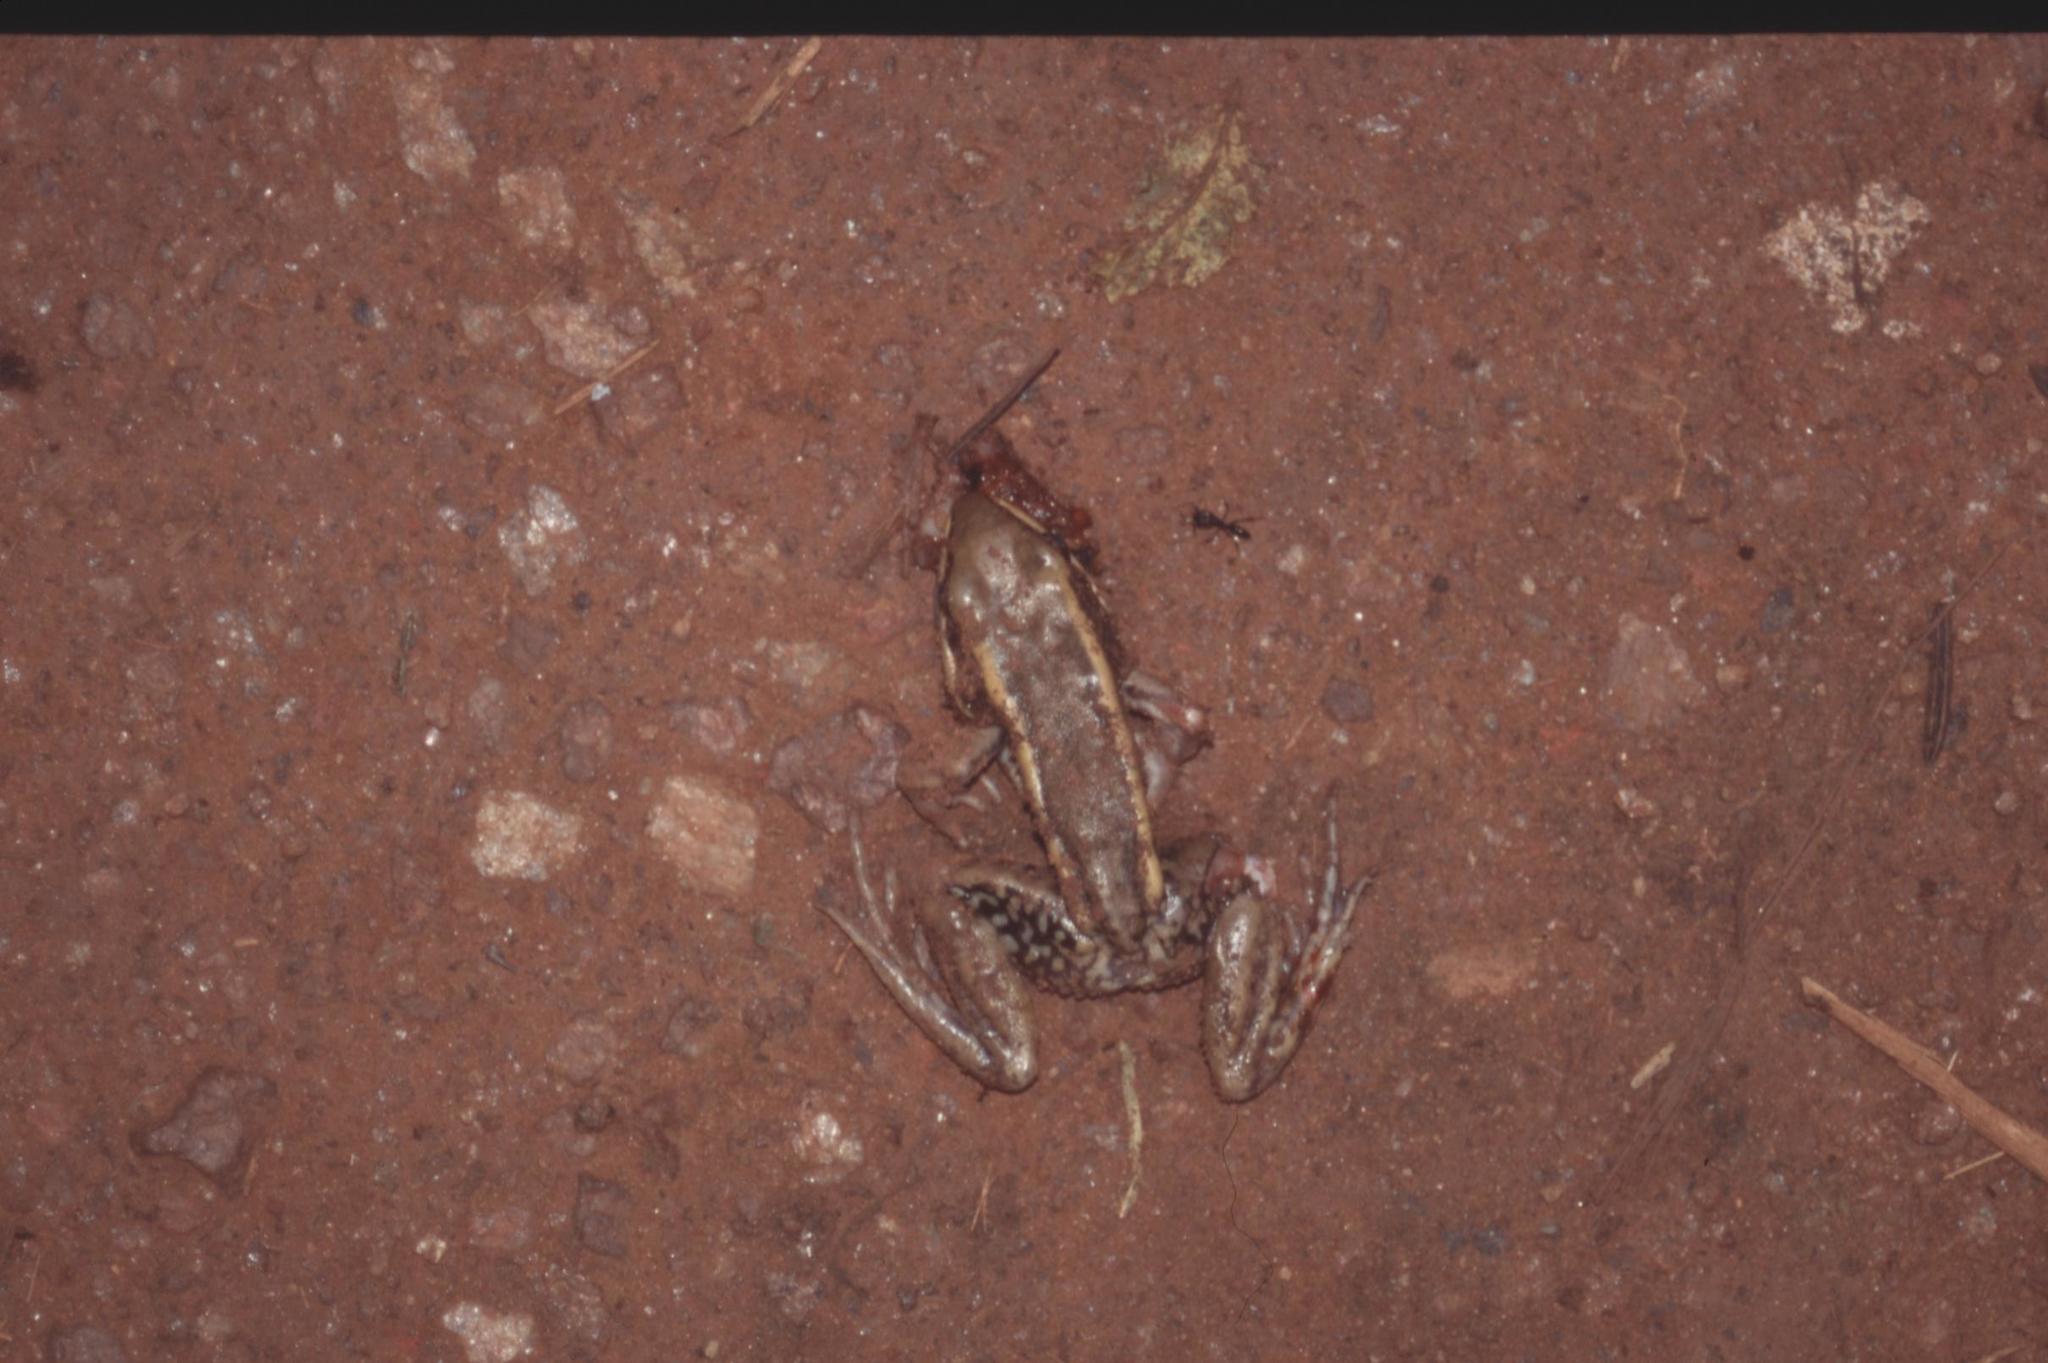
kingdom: Animalia
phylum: Chordata
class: Amphibia
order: Anura
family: Ranidae
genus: Amnirana
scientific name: Amnirana galamensis
